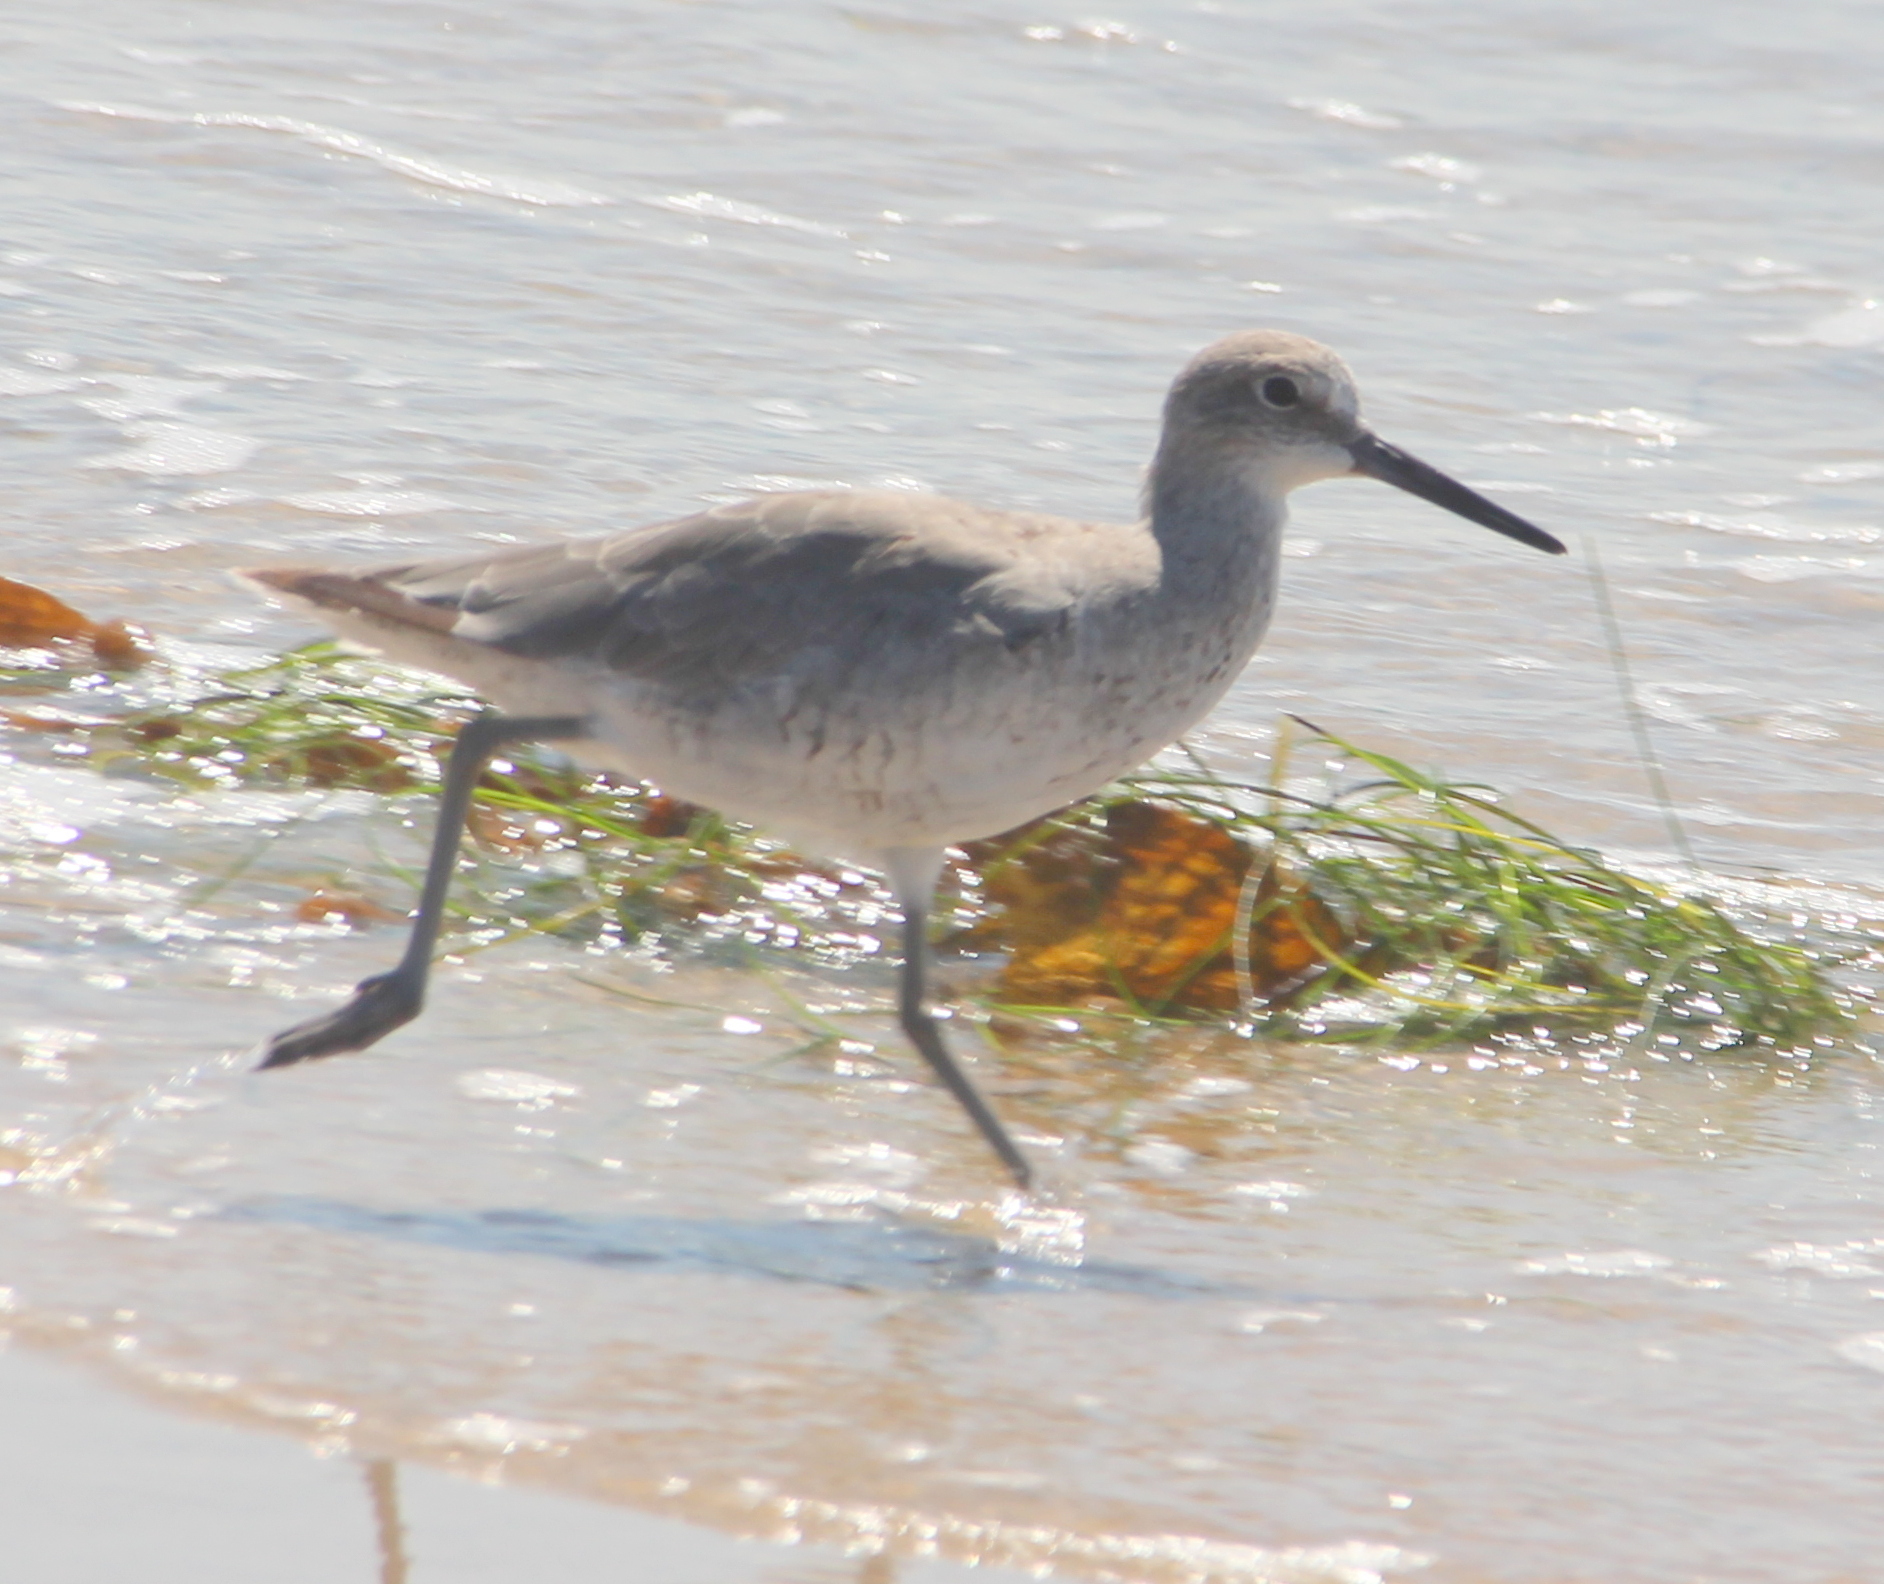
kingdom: Animalia
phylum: Chordata
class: Aves
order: Charadriiformes
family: Scolopacidae
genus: Tringa
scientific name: Tringa semipalmata
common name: Willet
